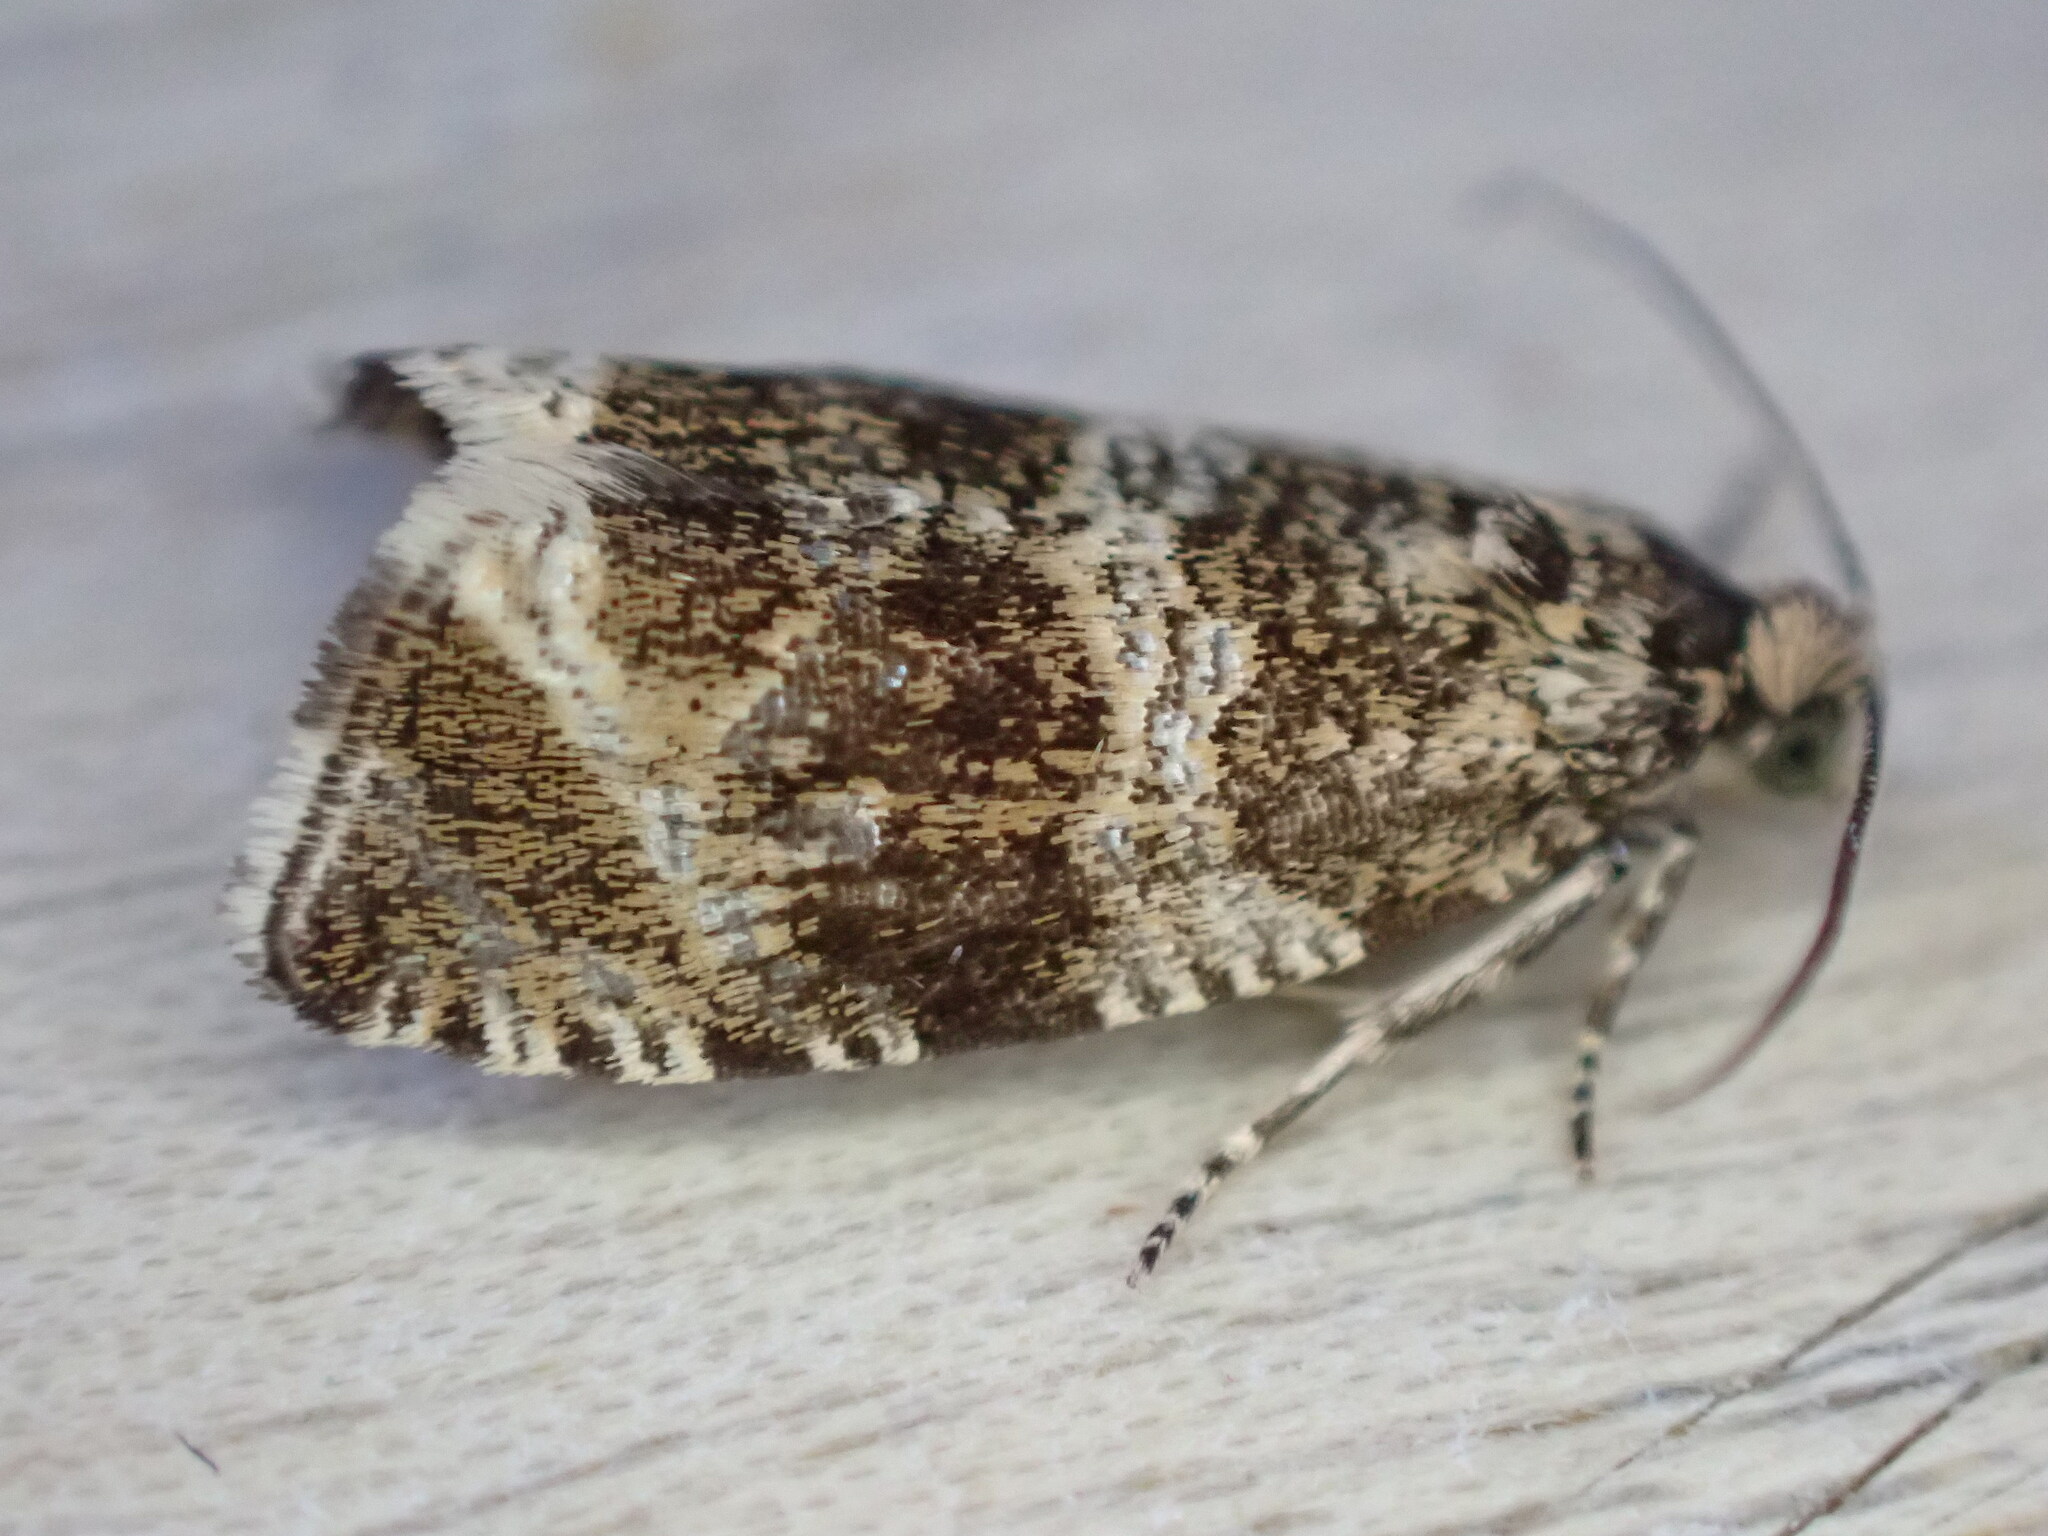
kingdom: Animalia
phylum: Arthropoda
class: Insecta
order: Lepidoptera
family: Tortricidae
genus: Syricoris
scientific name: Syricoris lacunana
